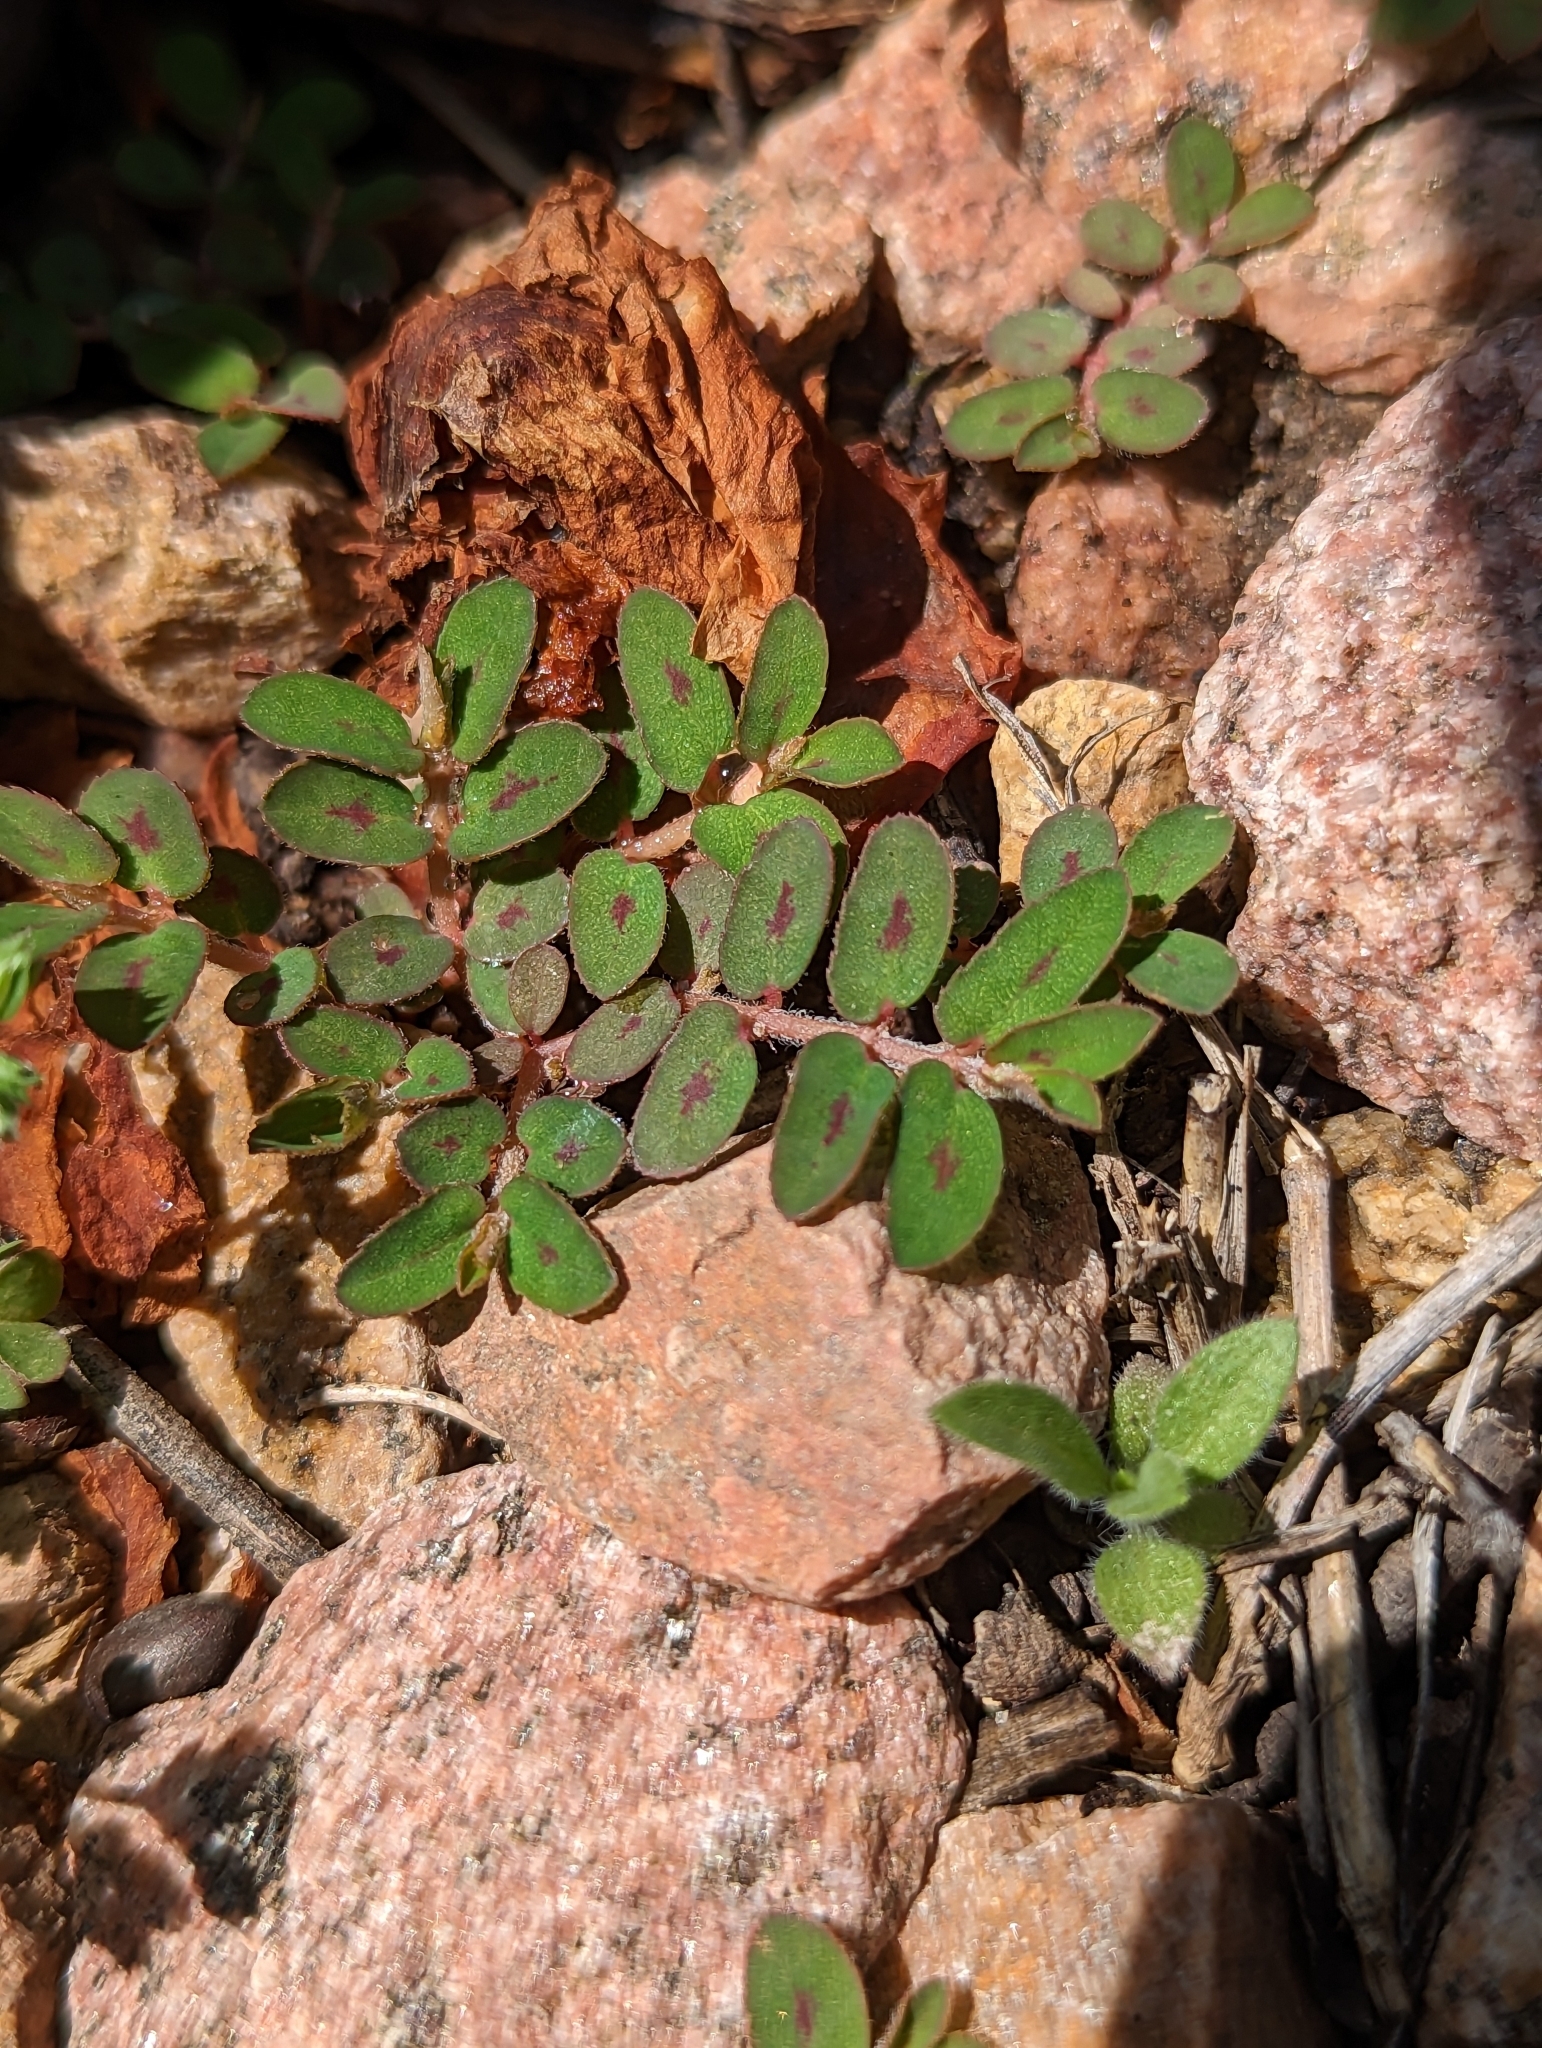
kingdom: Plantae
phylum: Tracheophyta
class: Magnoliopsida
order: Malpighiales
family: Euphorbiaceae
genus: Euphorbia
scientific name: Euphorbia maculata
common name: Spotted spurge
